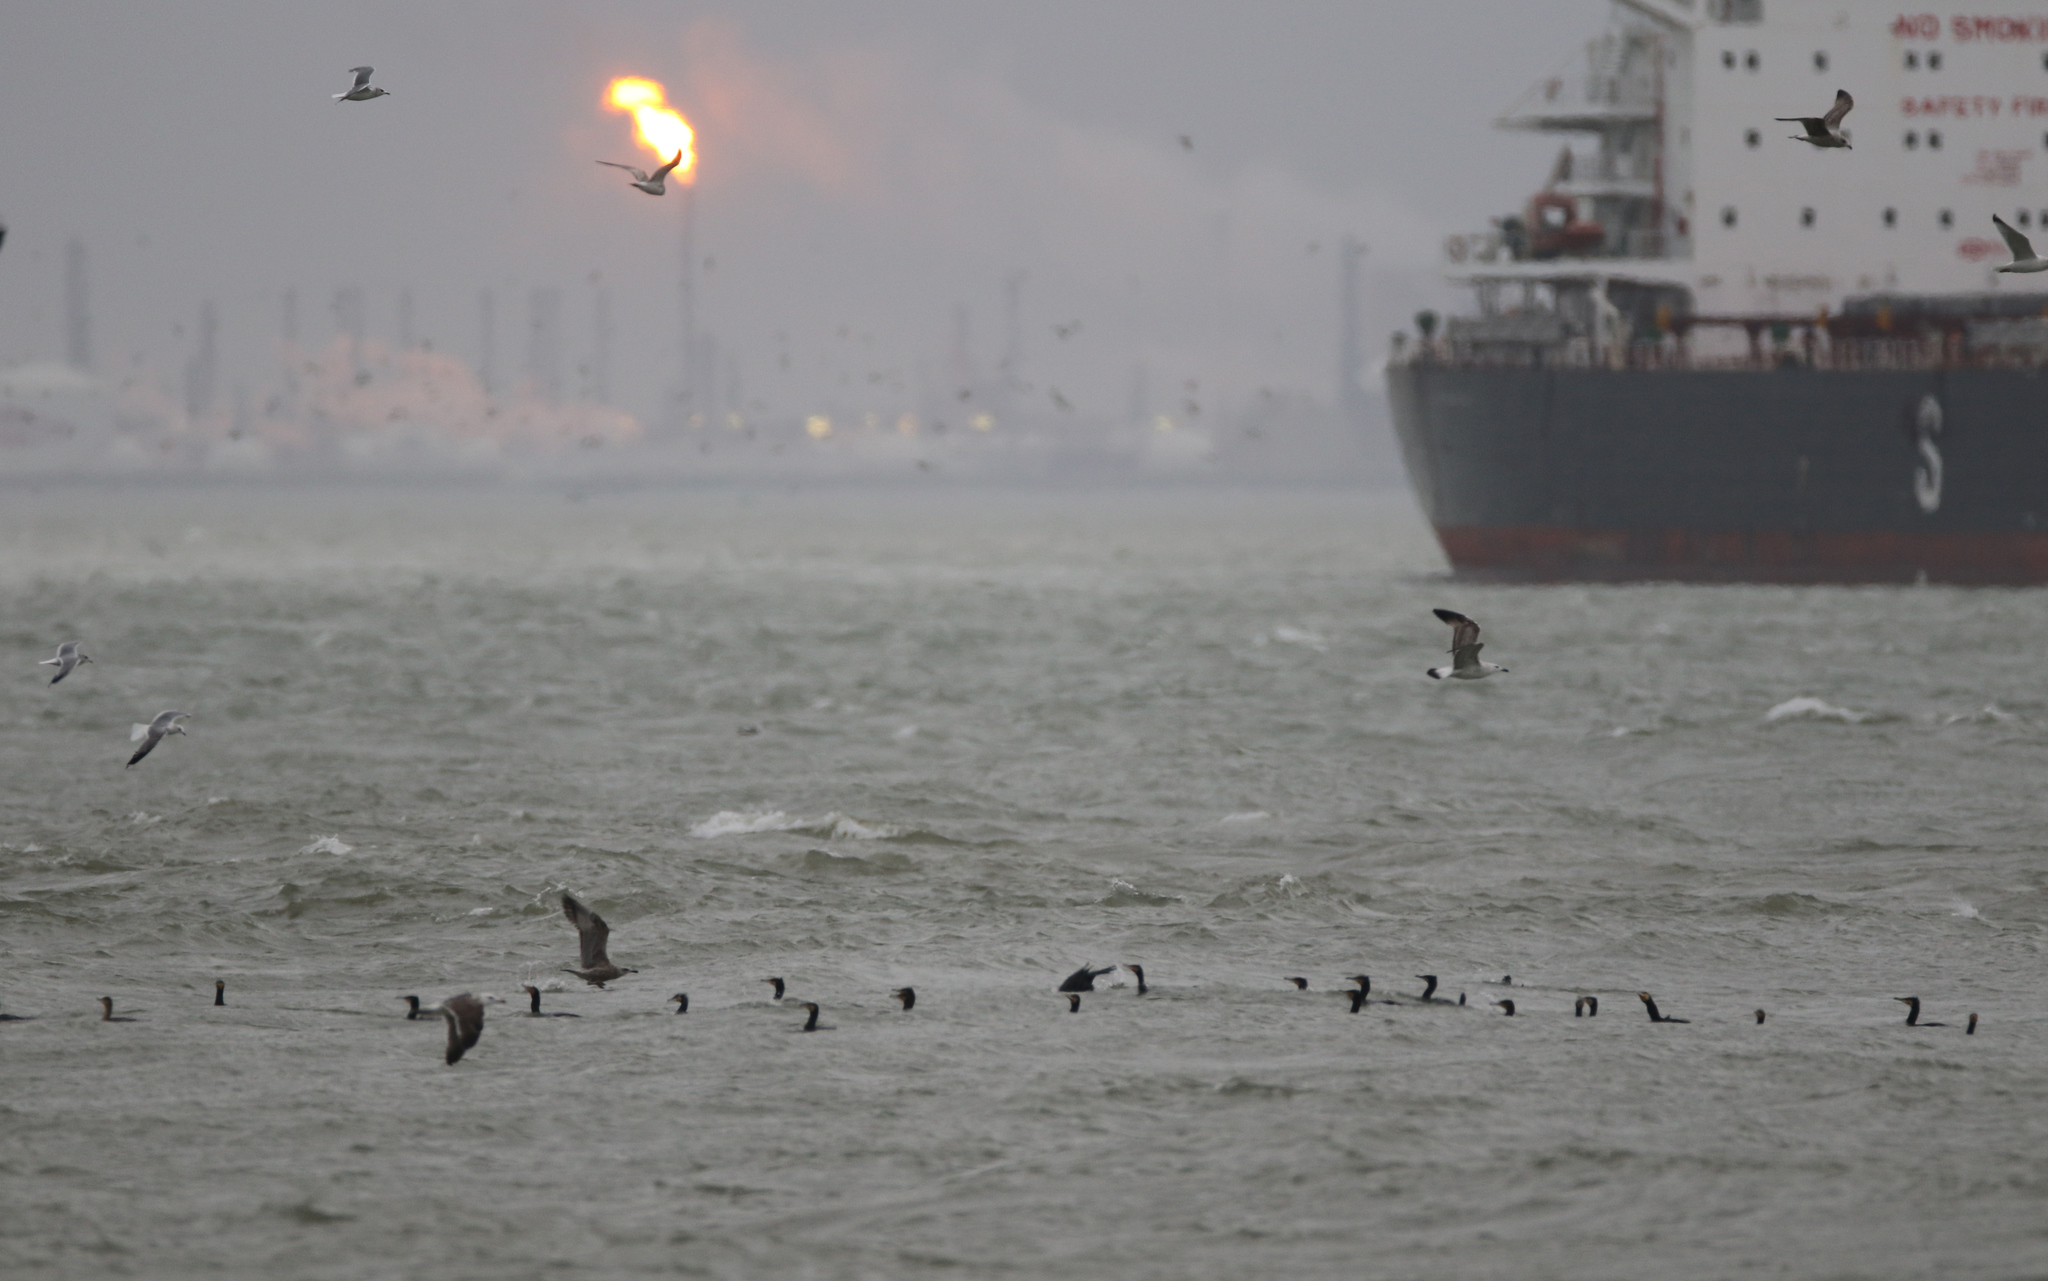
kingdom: Animalia
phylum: Chordata
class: Aves
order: Suliformes
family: Phalacrocoracidae
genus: Phalacrocorax
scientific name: Phalacrocorax carbo
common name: Great cormorant
